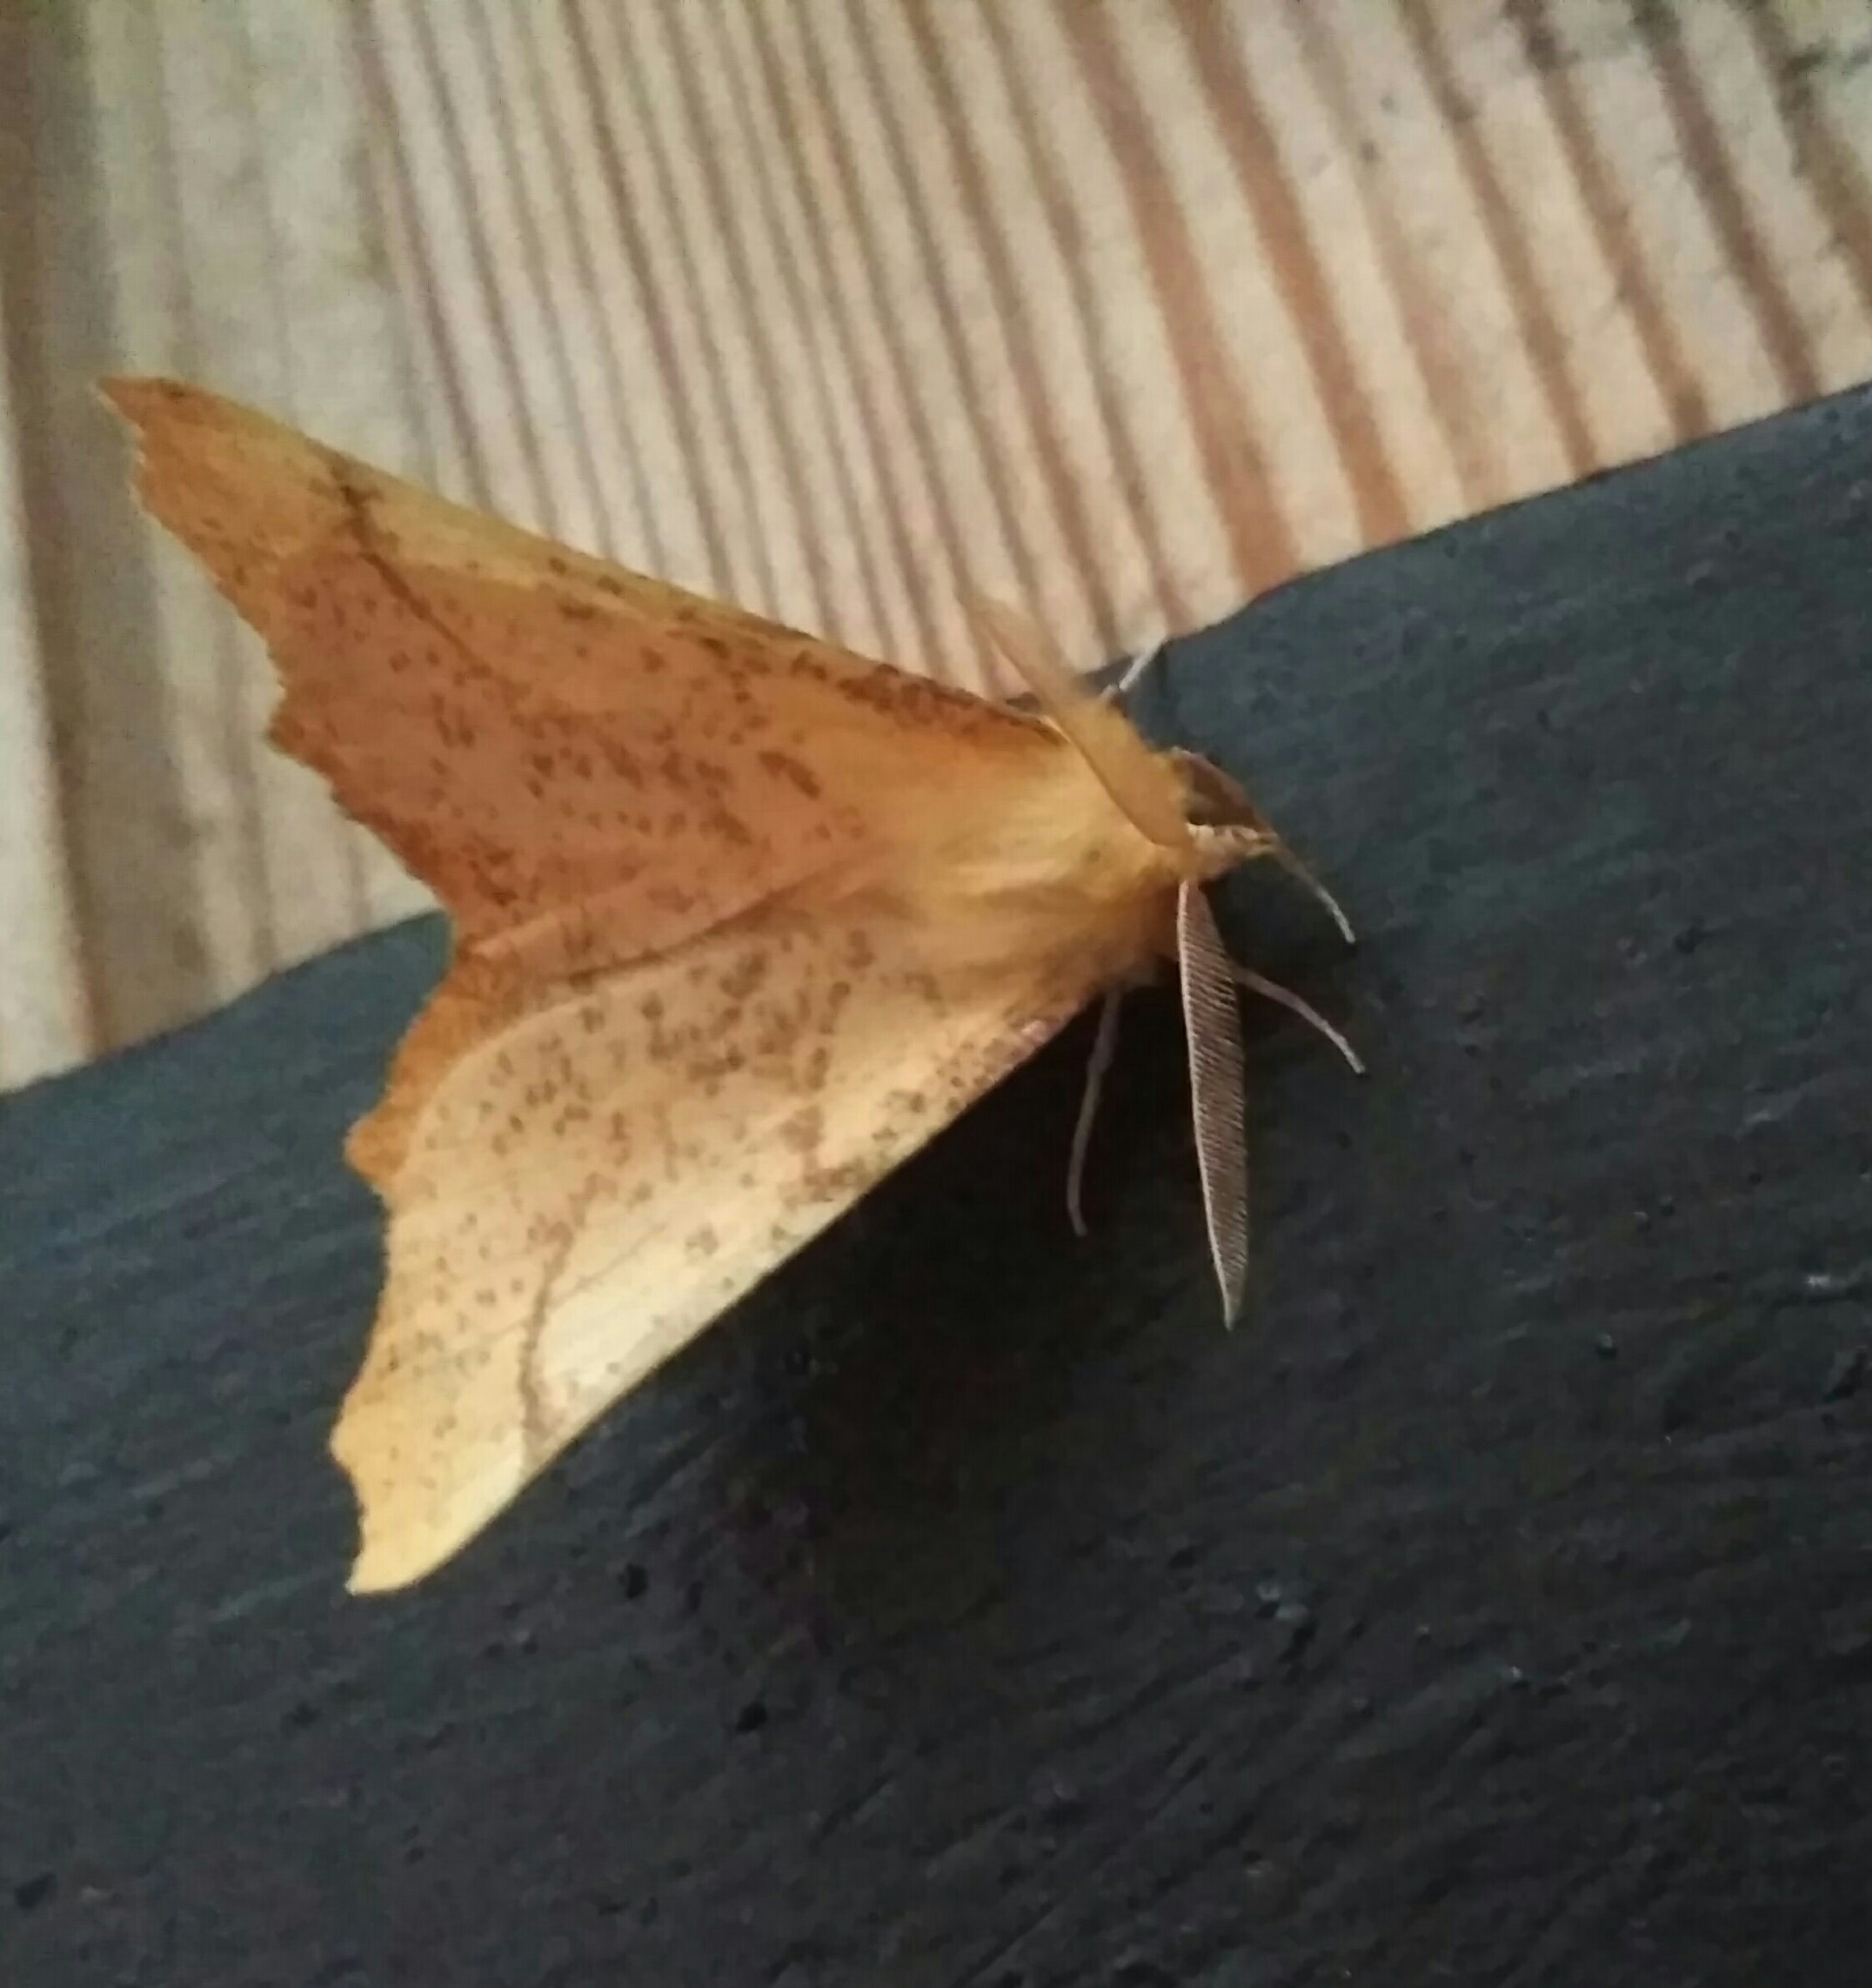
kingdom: Animalia
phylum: Arthropoda
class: Insecta
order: Lepidoptera
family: Geometridae
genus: Ennomos
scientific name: Ennomos autumnaria
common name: Large thorn
